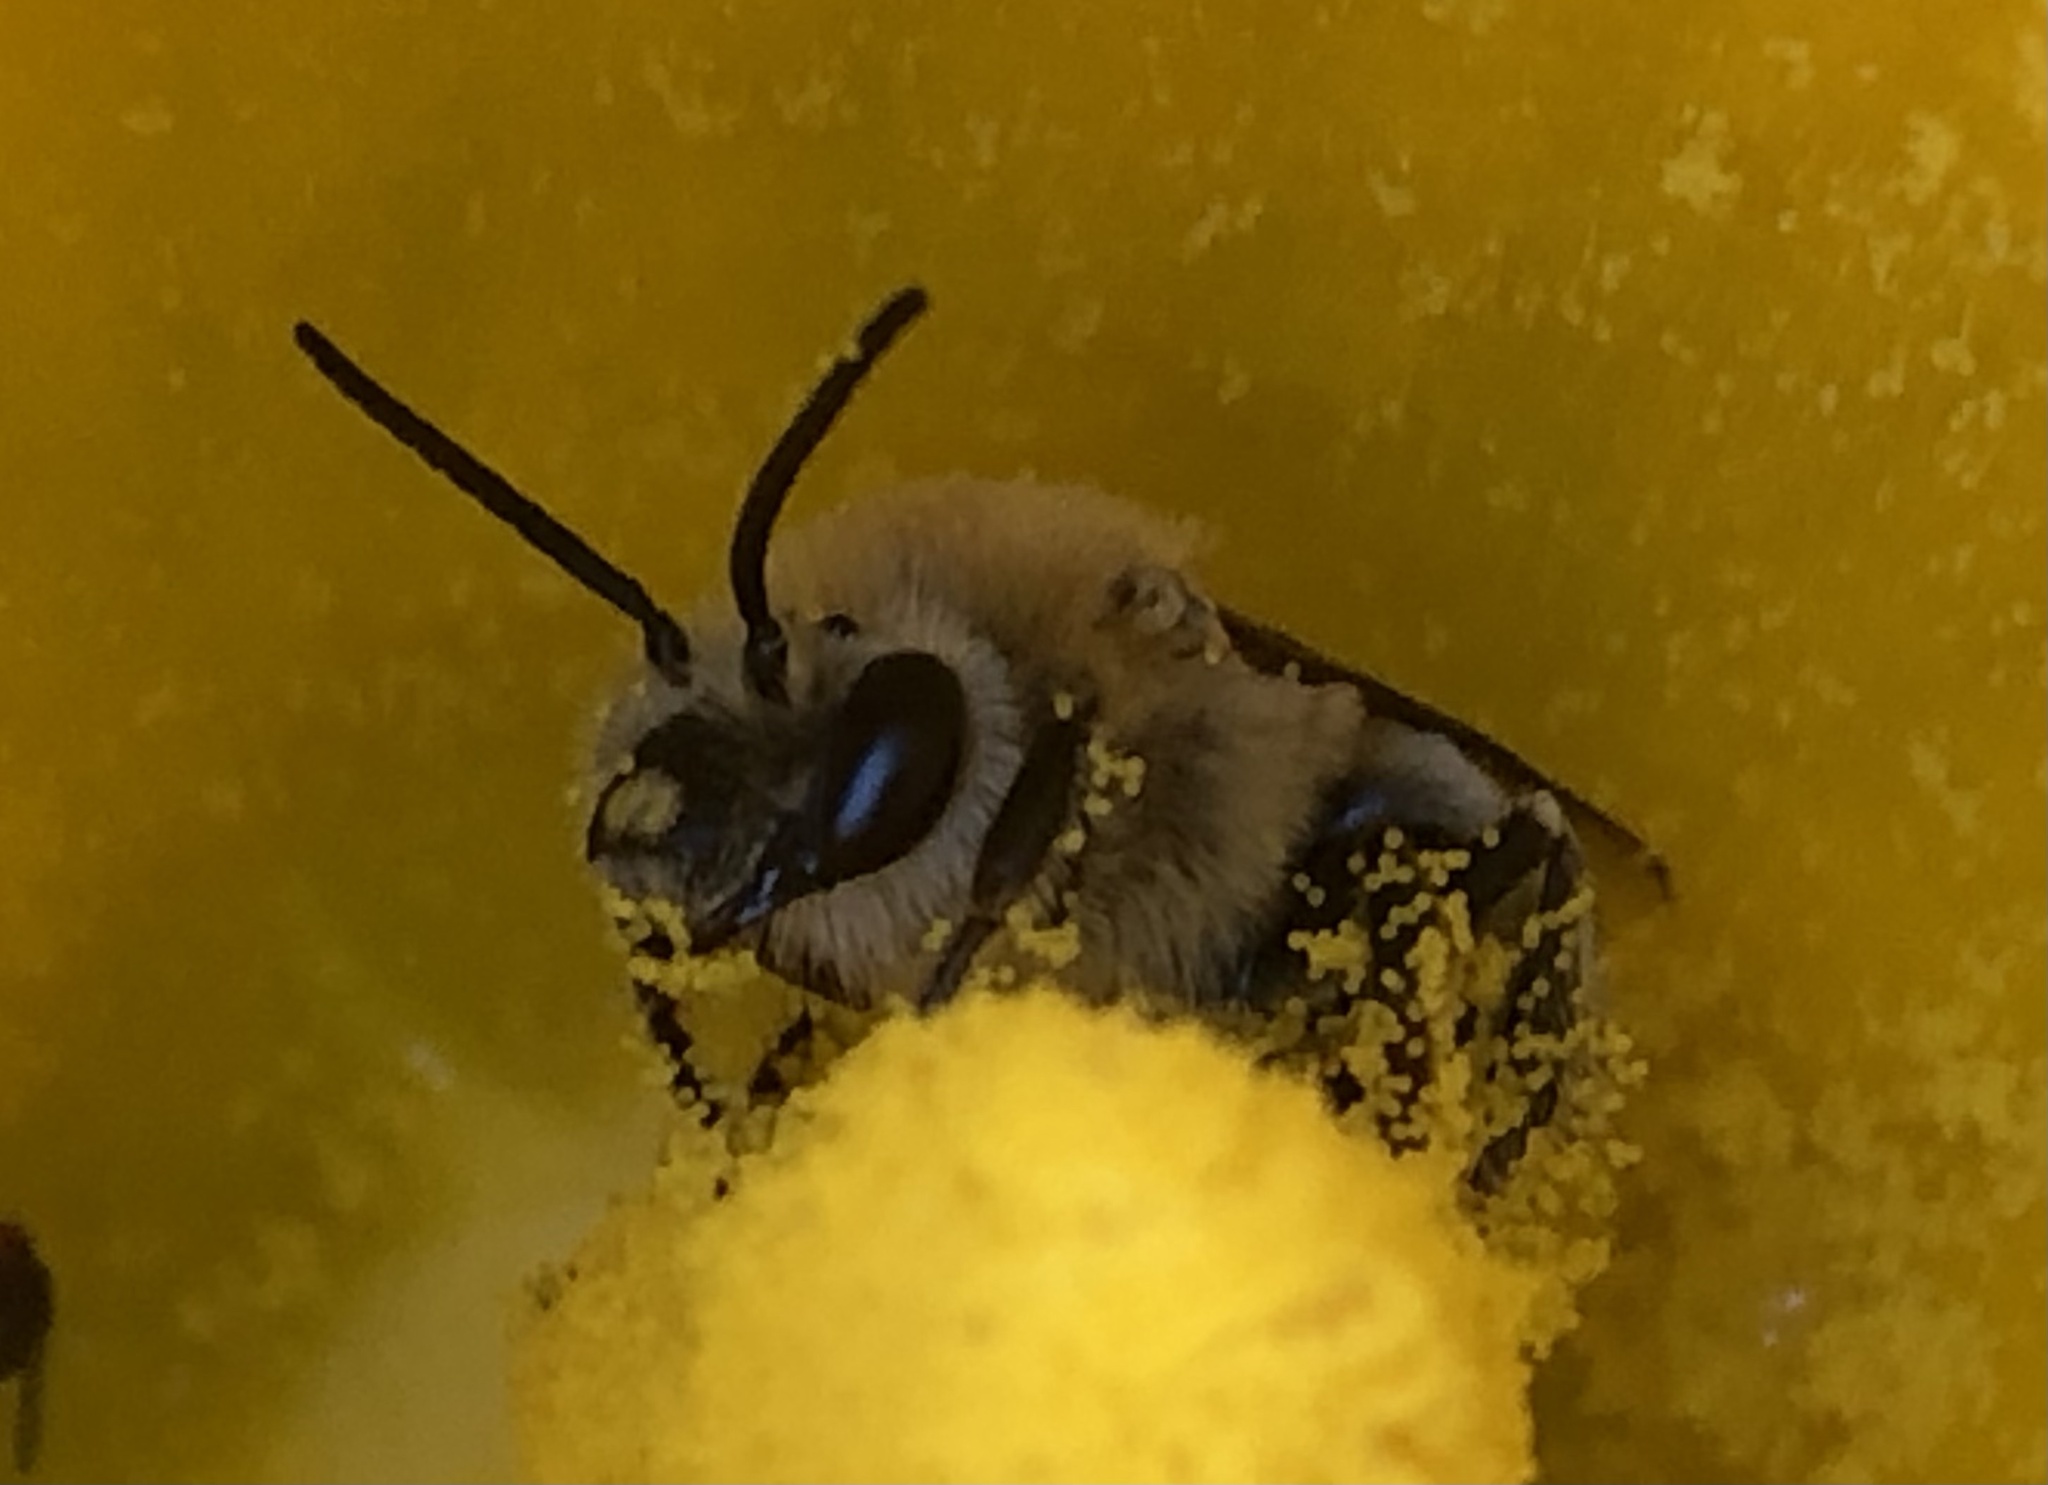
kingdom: Animalia
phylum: Arthropoda
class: Insecta
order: Hymenoptera
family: Apidae
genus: Peponapis
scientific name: Peponapis pruinosa
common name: Pruinose squash bee
